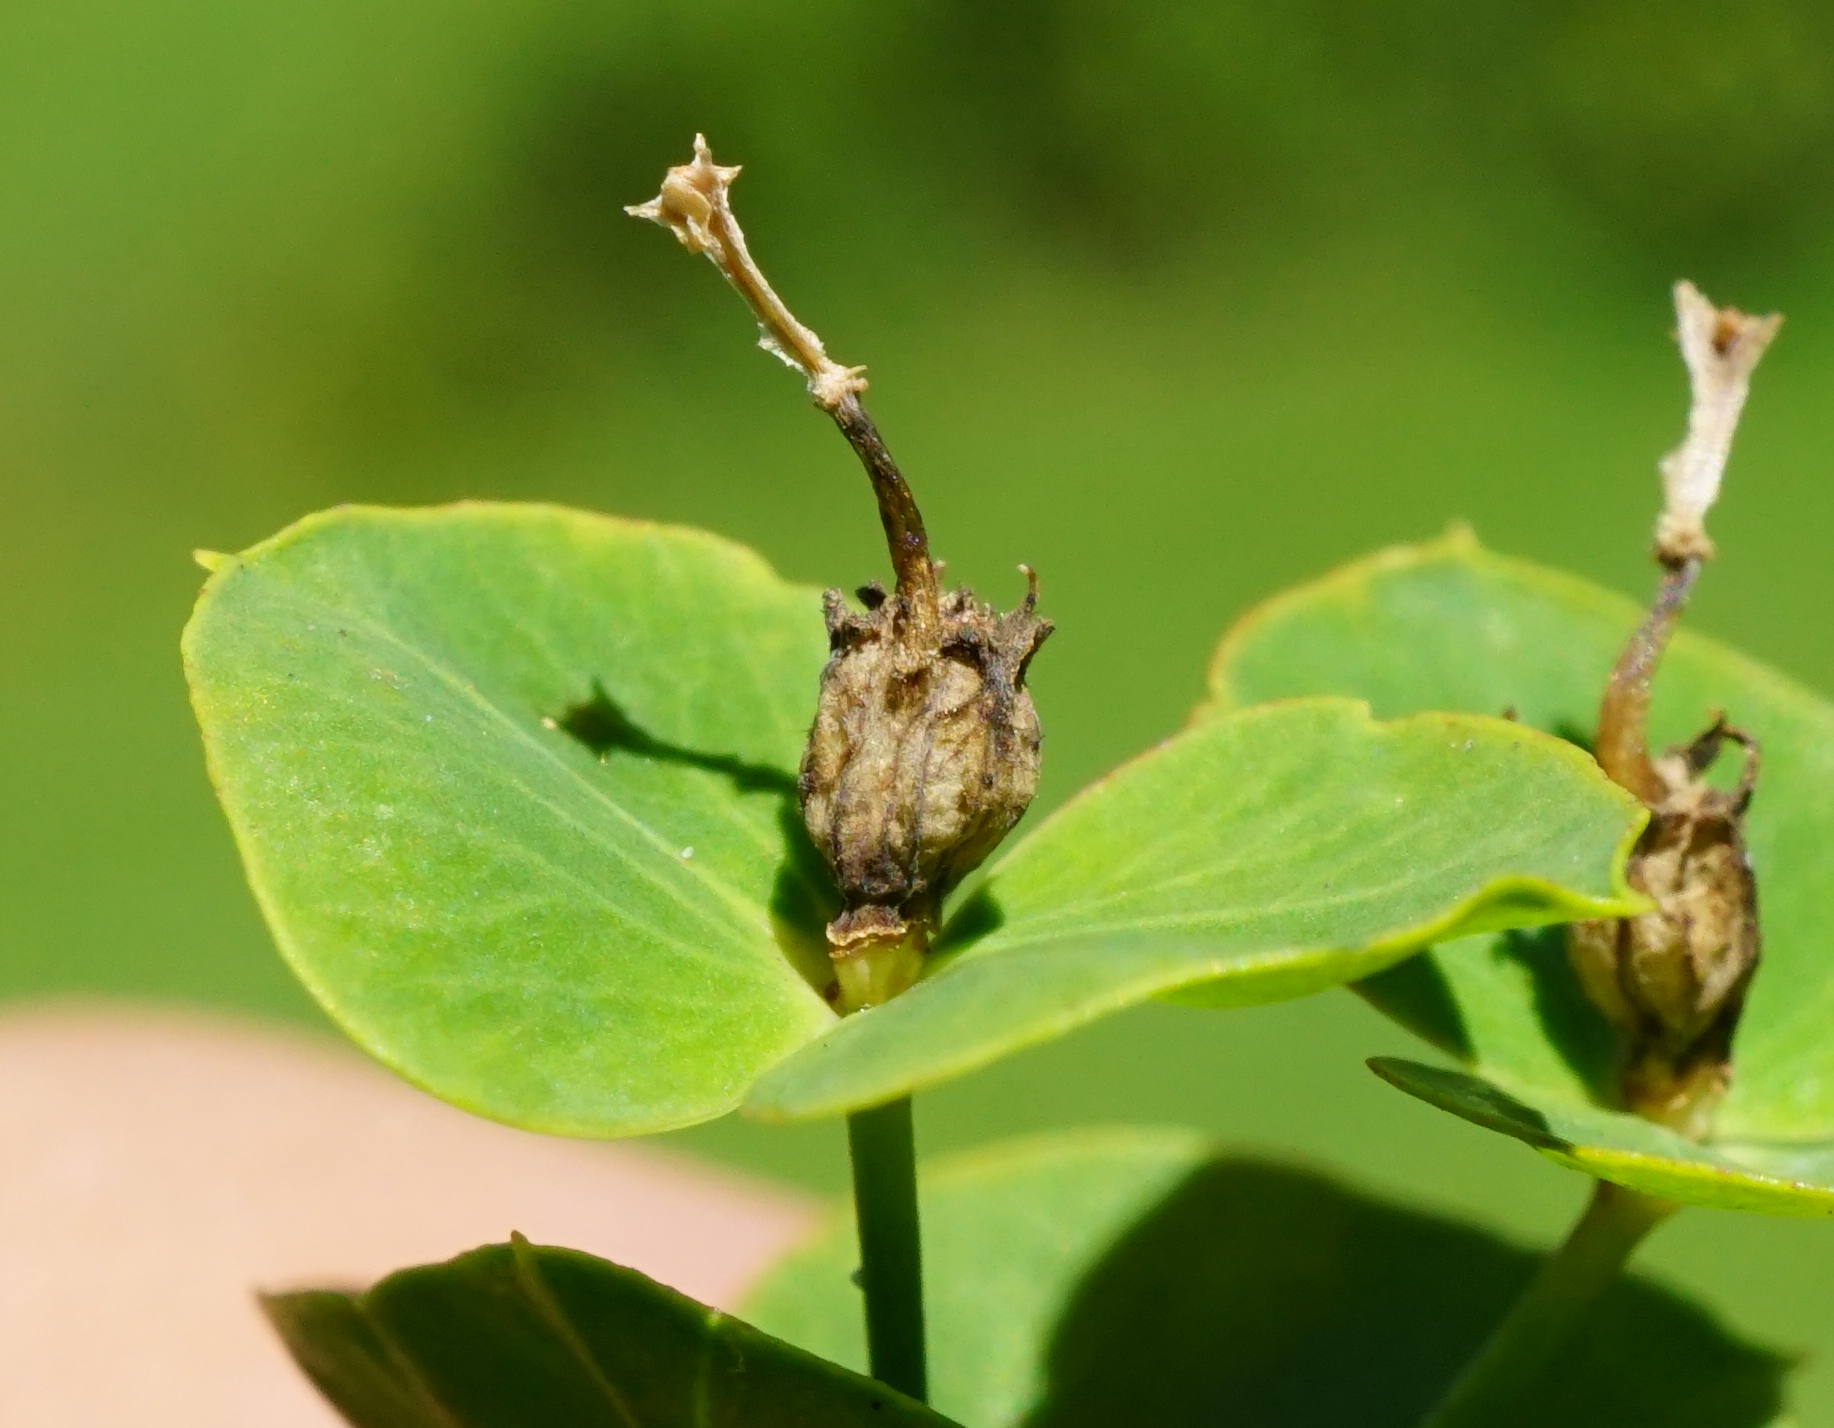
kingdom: Plantae
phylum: Tracheophyta
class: Magnoliopsida
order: Malpighiales
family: Euphorbiaceae
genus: Euphorbia
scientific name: Euphorbia virgata
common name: Leafy spurge
